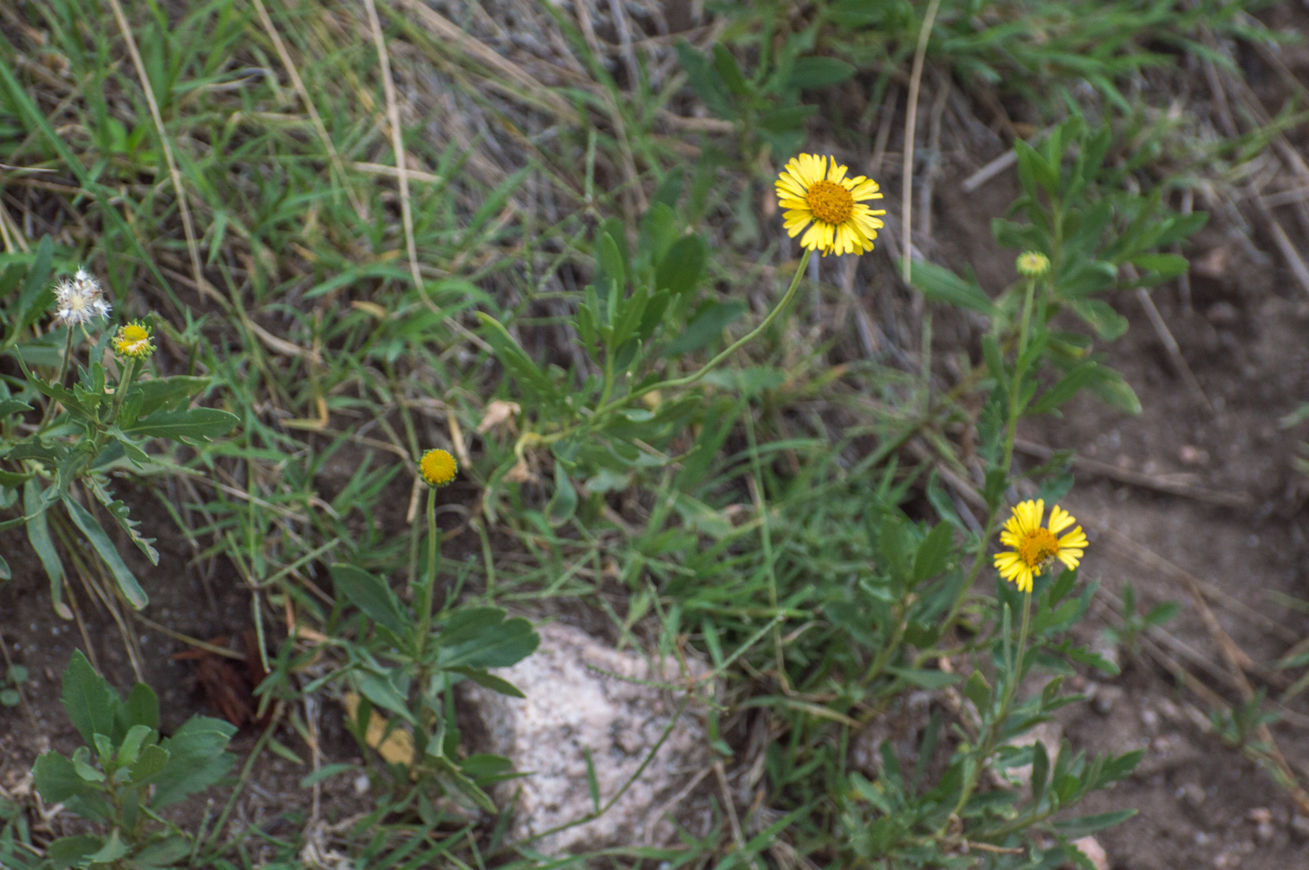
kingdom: Plantae
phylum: Tracheophyta
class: Magnoliopsida
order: Asterales
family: Asteraceae
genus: Gaillardia
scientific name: Gaillardia megapotamica
